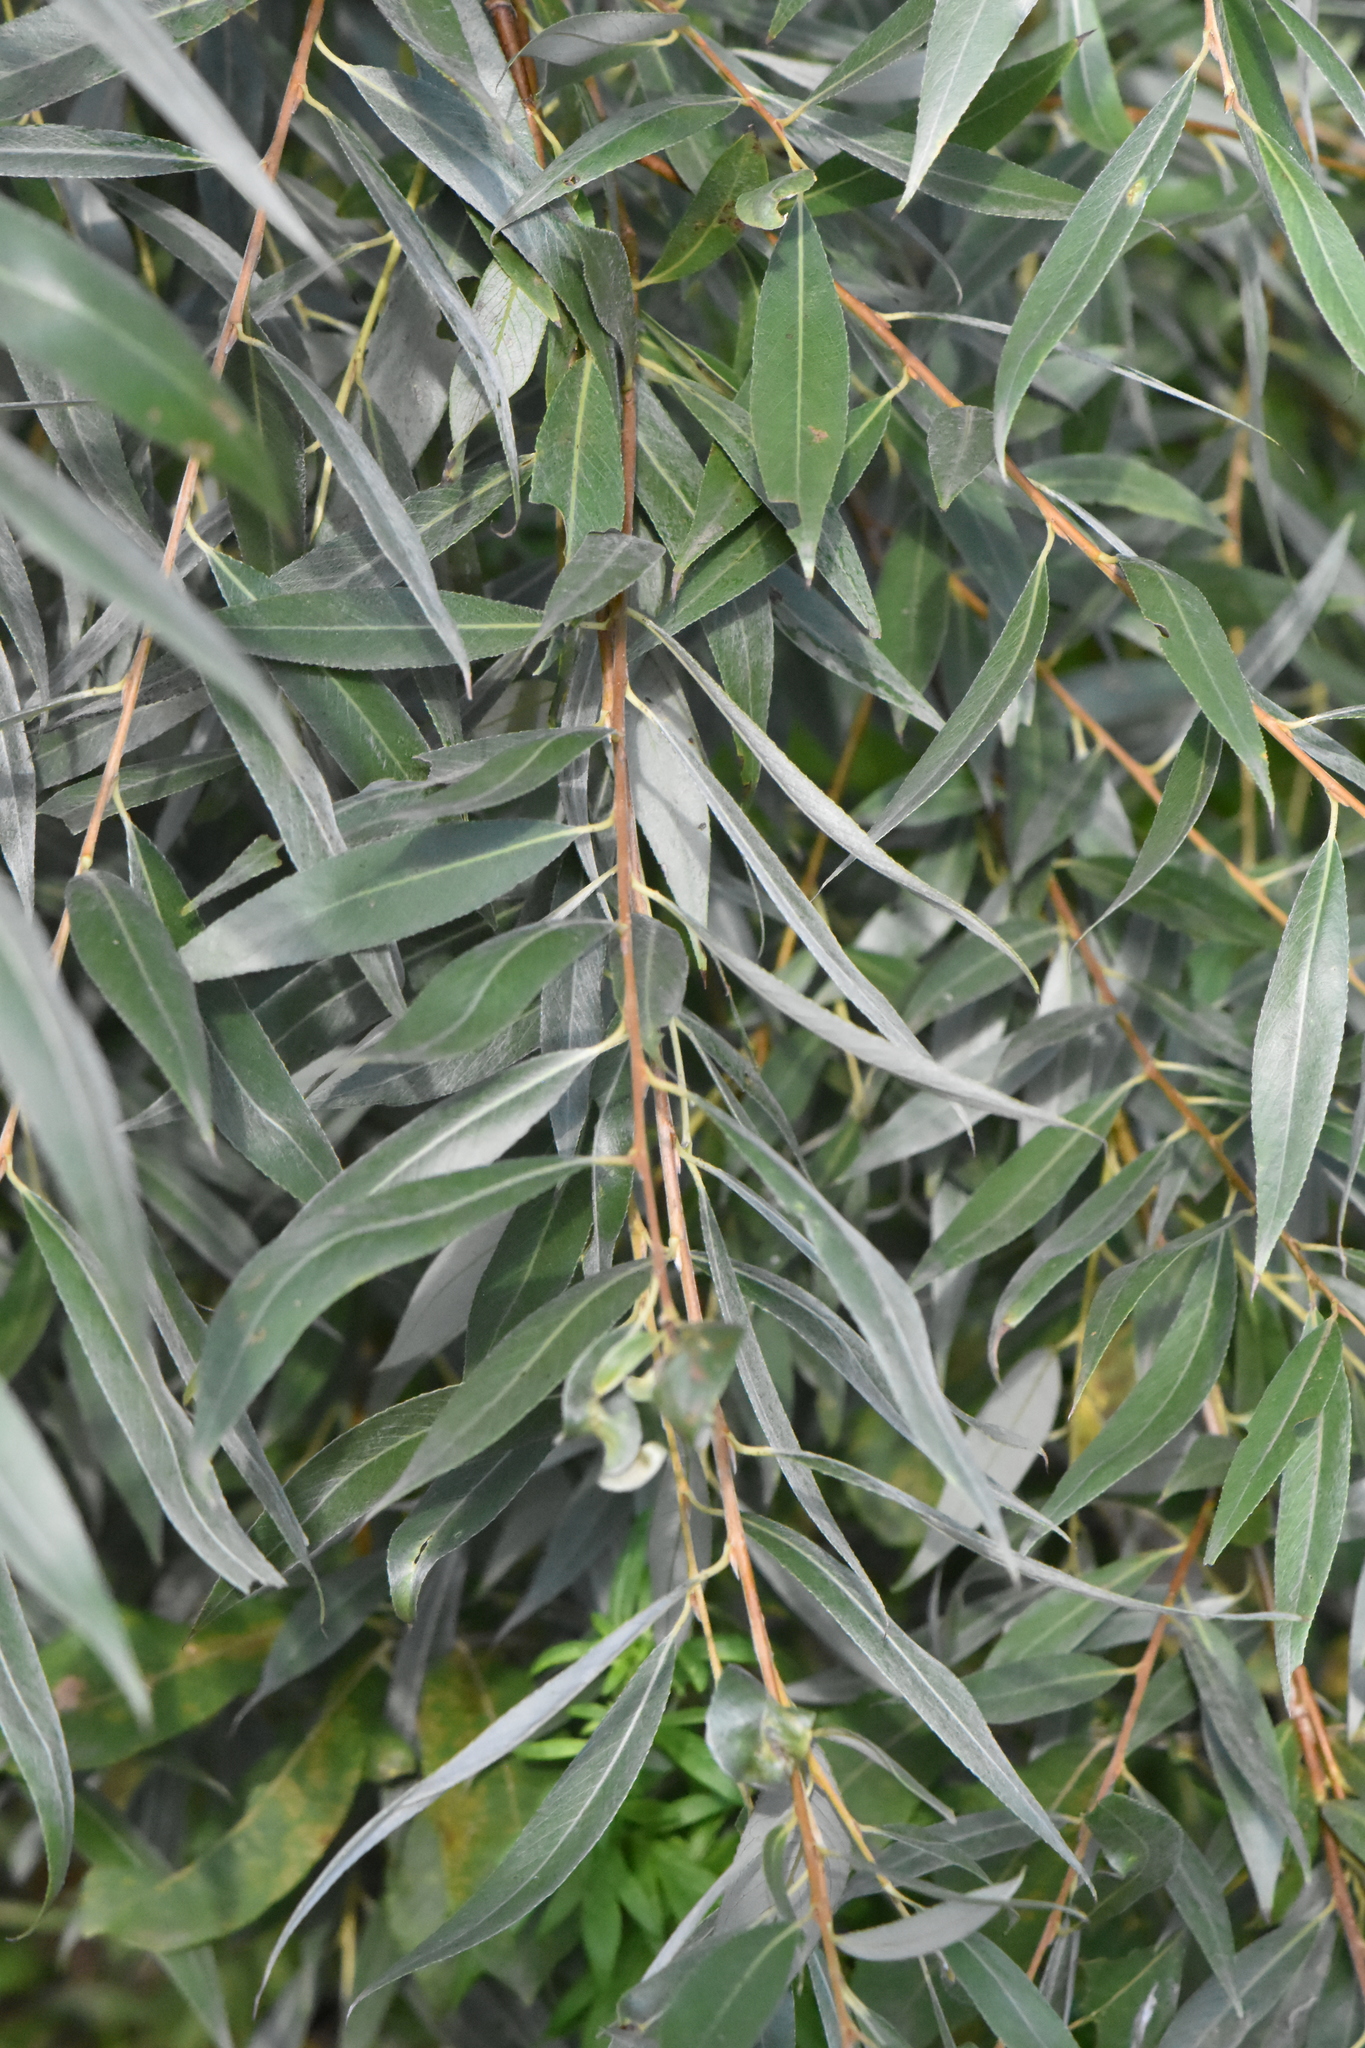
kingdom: Plantae
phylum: Tracheophyta
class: Magnoliopsida
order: Malpighiales
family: Salicaceae
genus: Salix
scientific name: Salix alba
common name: White willow
